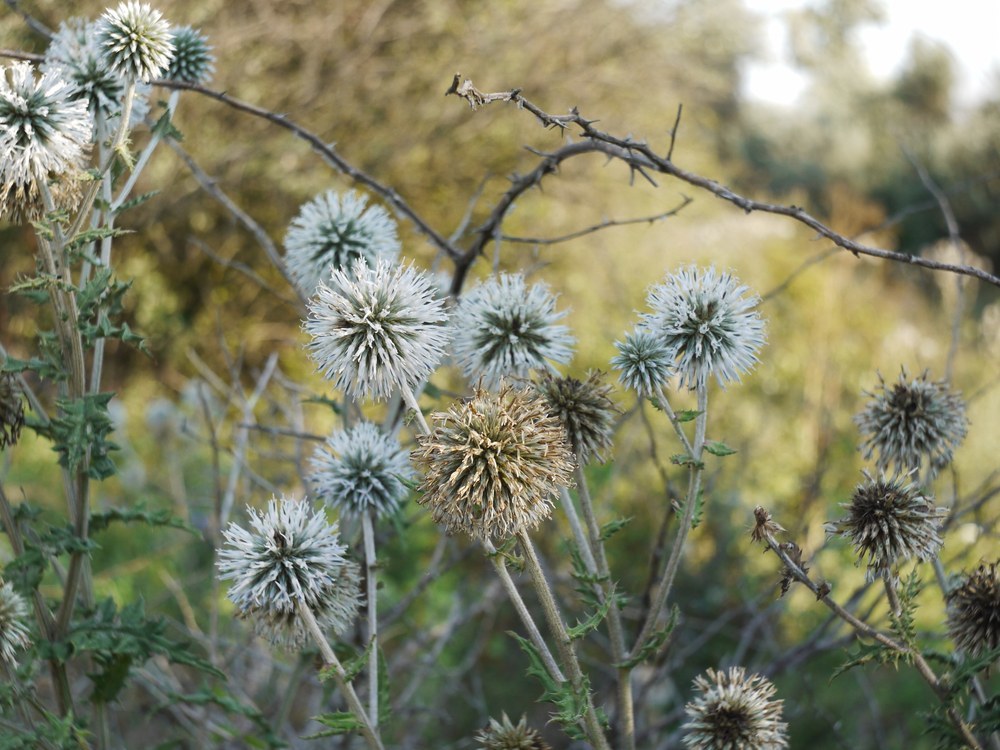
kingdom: Plantae
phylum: Tracheophyta
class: Magnoliopsida
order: Asterales
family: Asteraceae
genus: Echinops
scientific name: Echinops sphaerocephalus
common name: Glandular globe-thistle
